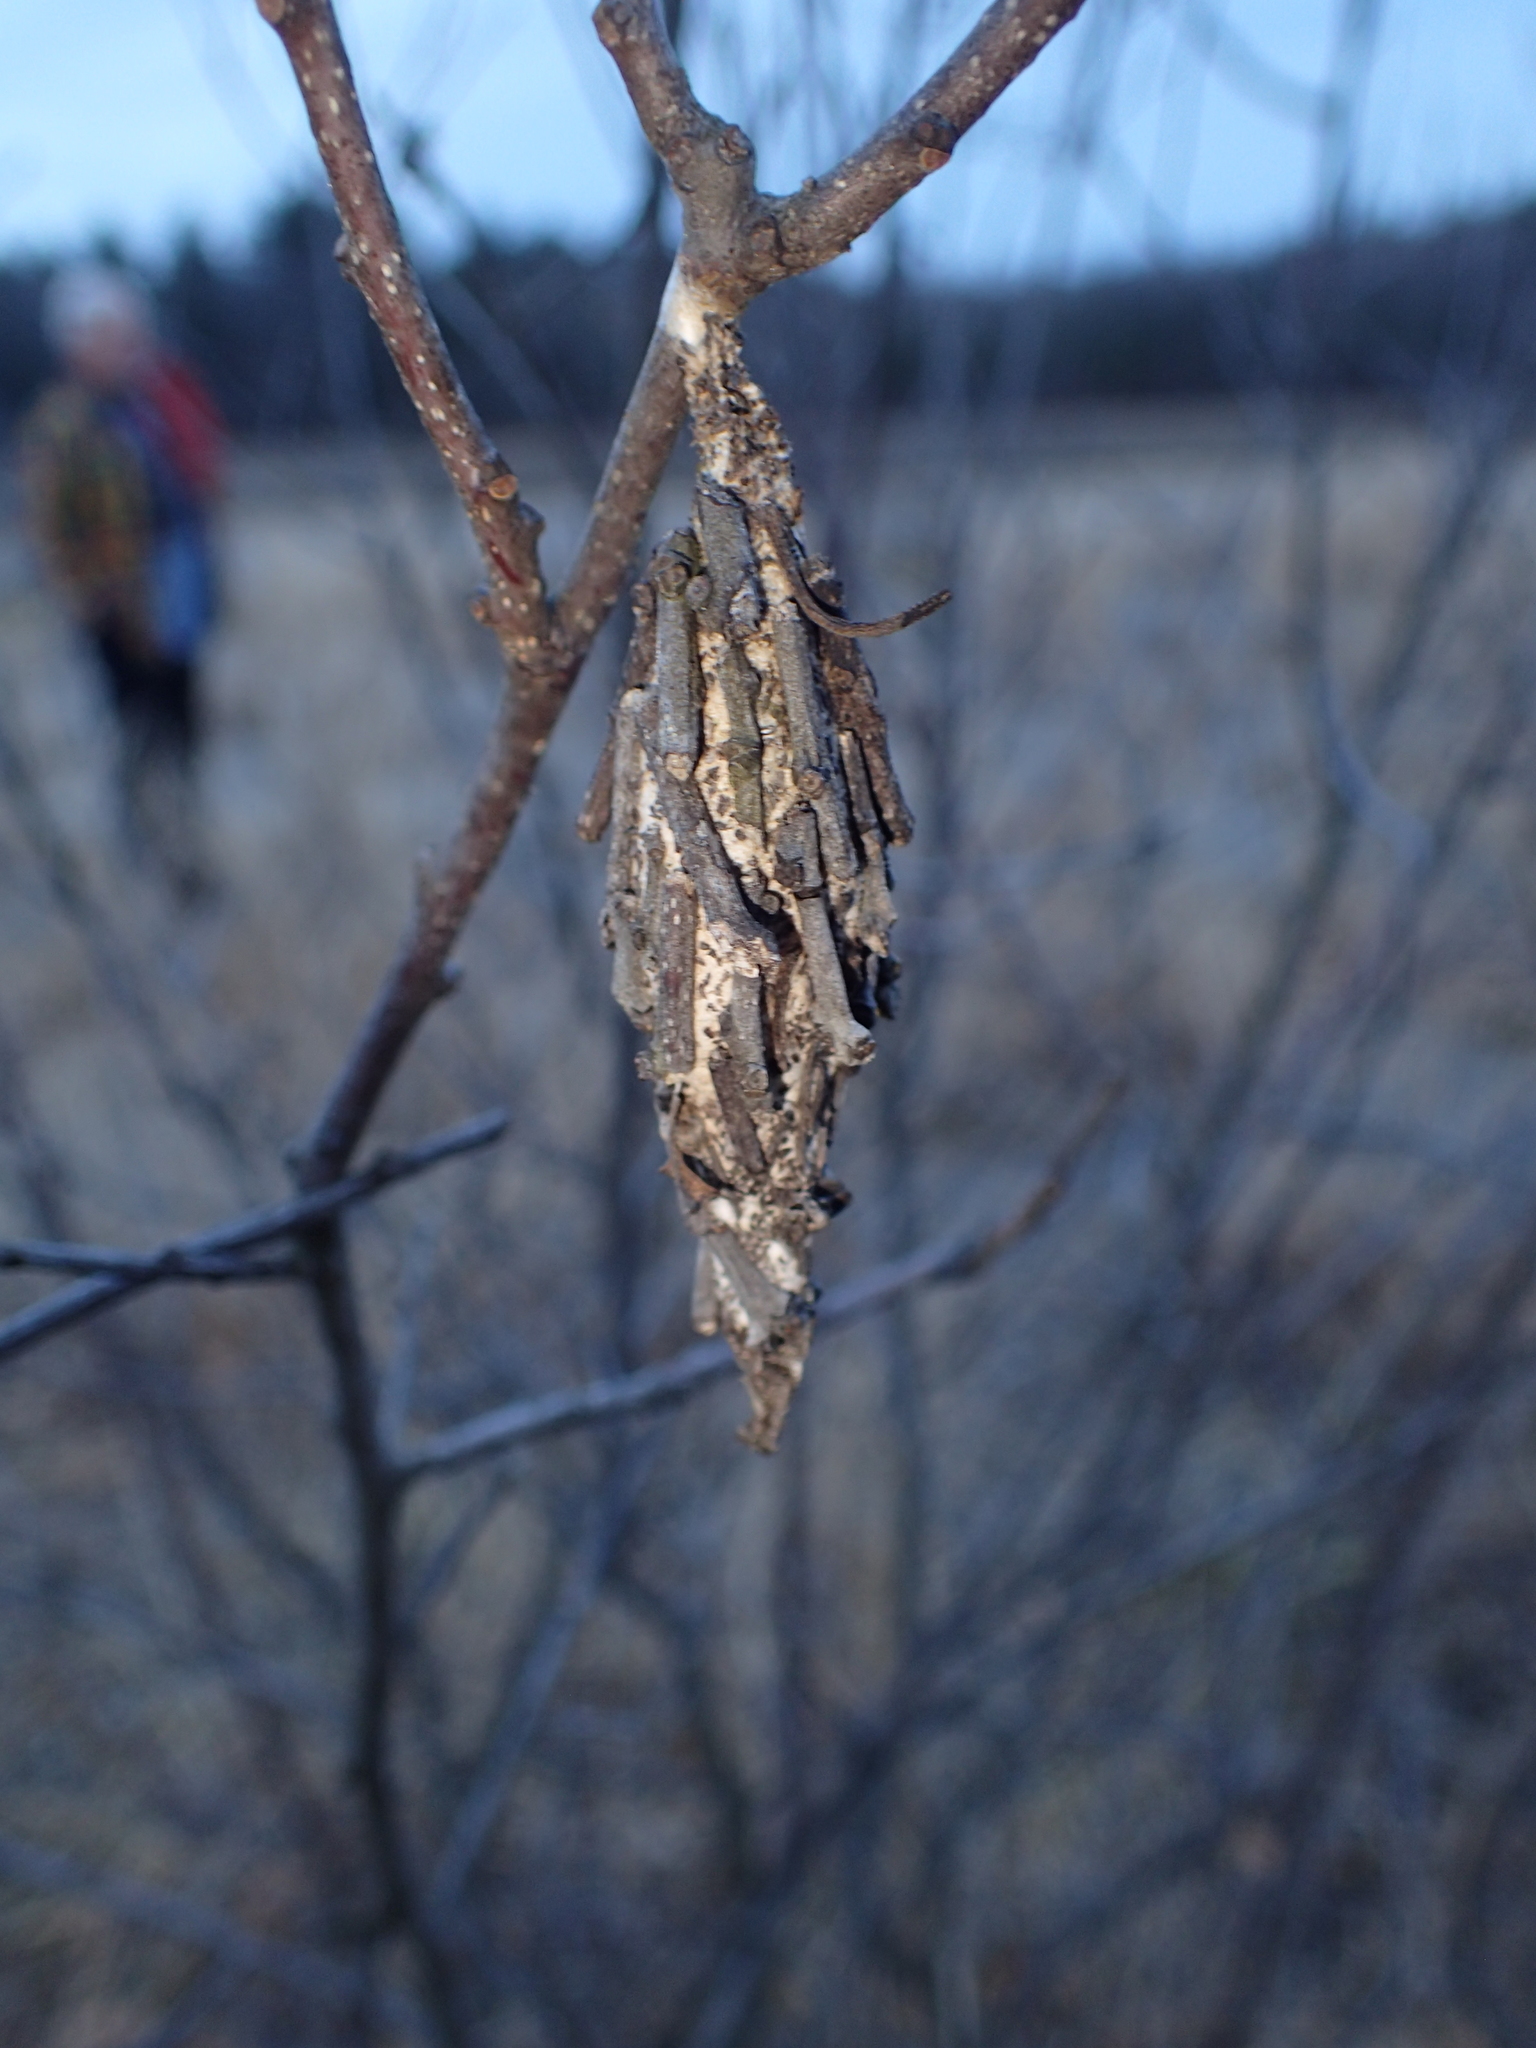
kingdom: Animalia
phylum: Arthropoda
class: Insecta
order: Lepidoptera
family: Psychidae
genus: Thyridopteryx
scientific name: Thyridopteryx ephemeraeformis
